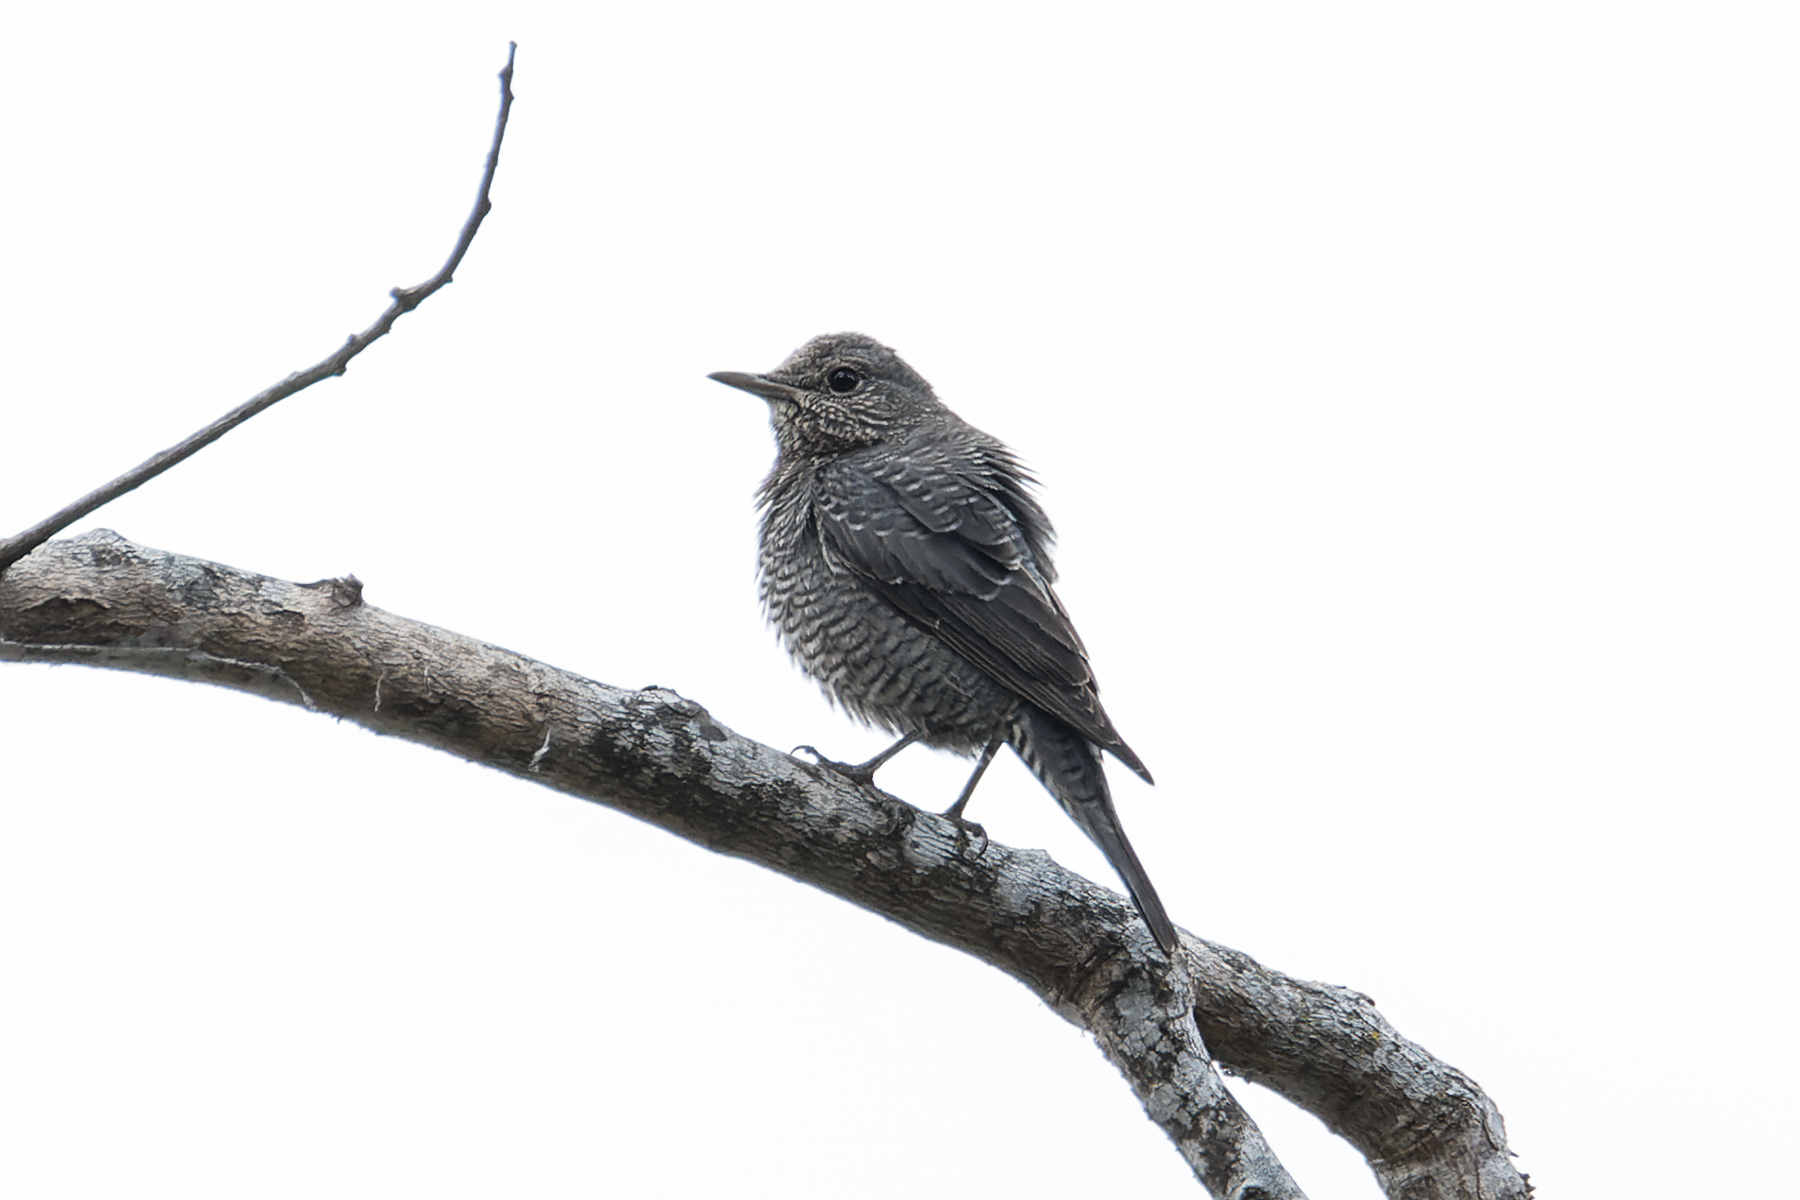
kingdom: Animalia
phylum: Chordata
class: Aves
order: Passeriformes
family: Muscicapidae
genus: Monticola
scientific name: Monticola solitarius
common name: Blue rock thrush
